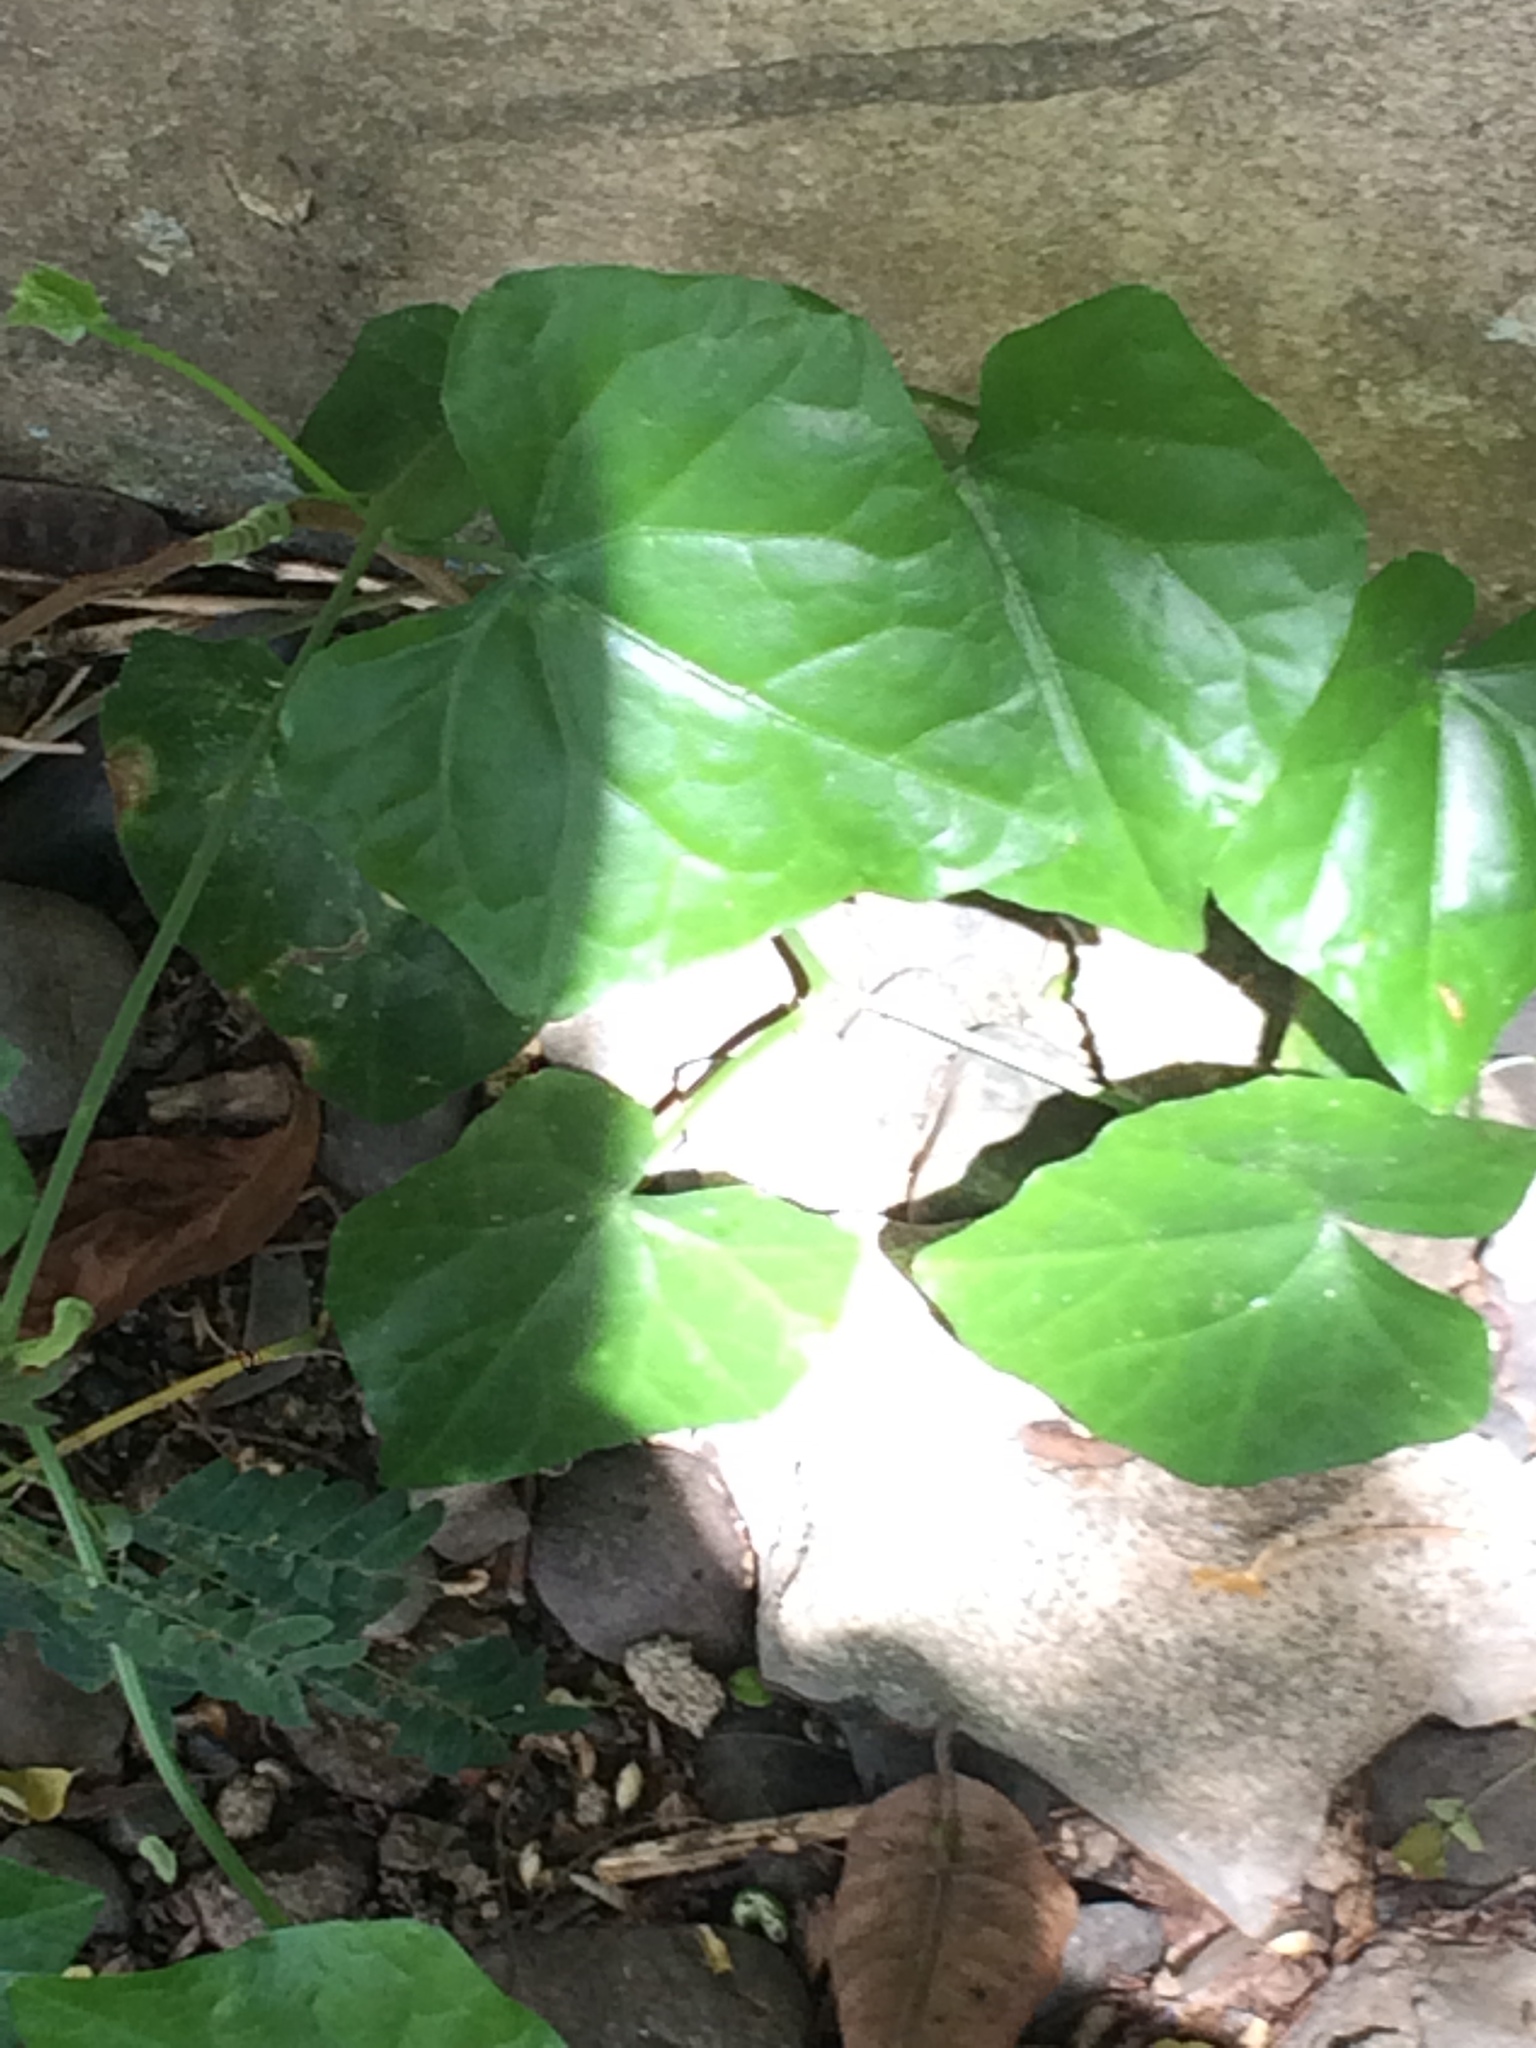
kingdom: Plantae
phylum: Tracheophyta
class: Magnoliopsida
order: Cucurbitales
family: Cucurbitaceae
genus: Melothria
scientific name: Melothria pendula
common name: Creeping-cucumber
